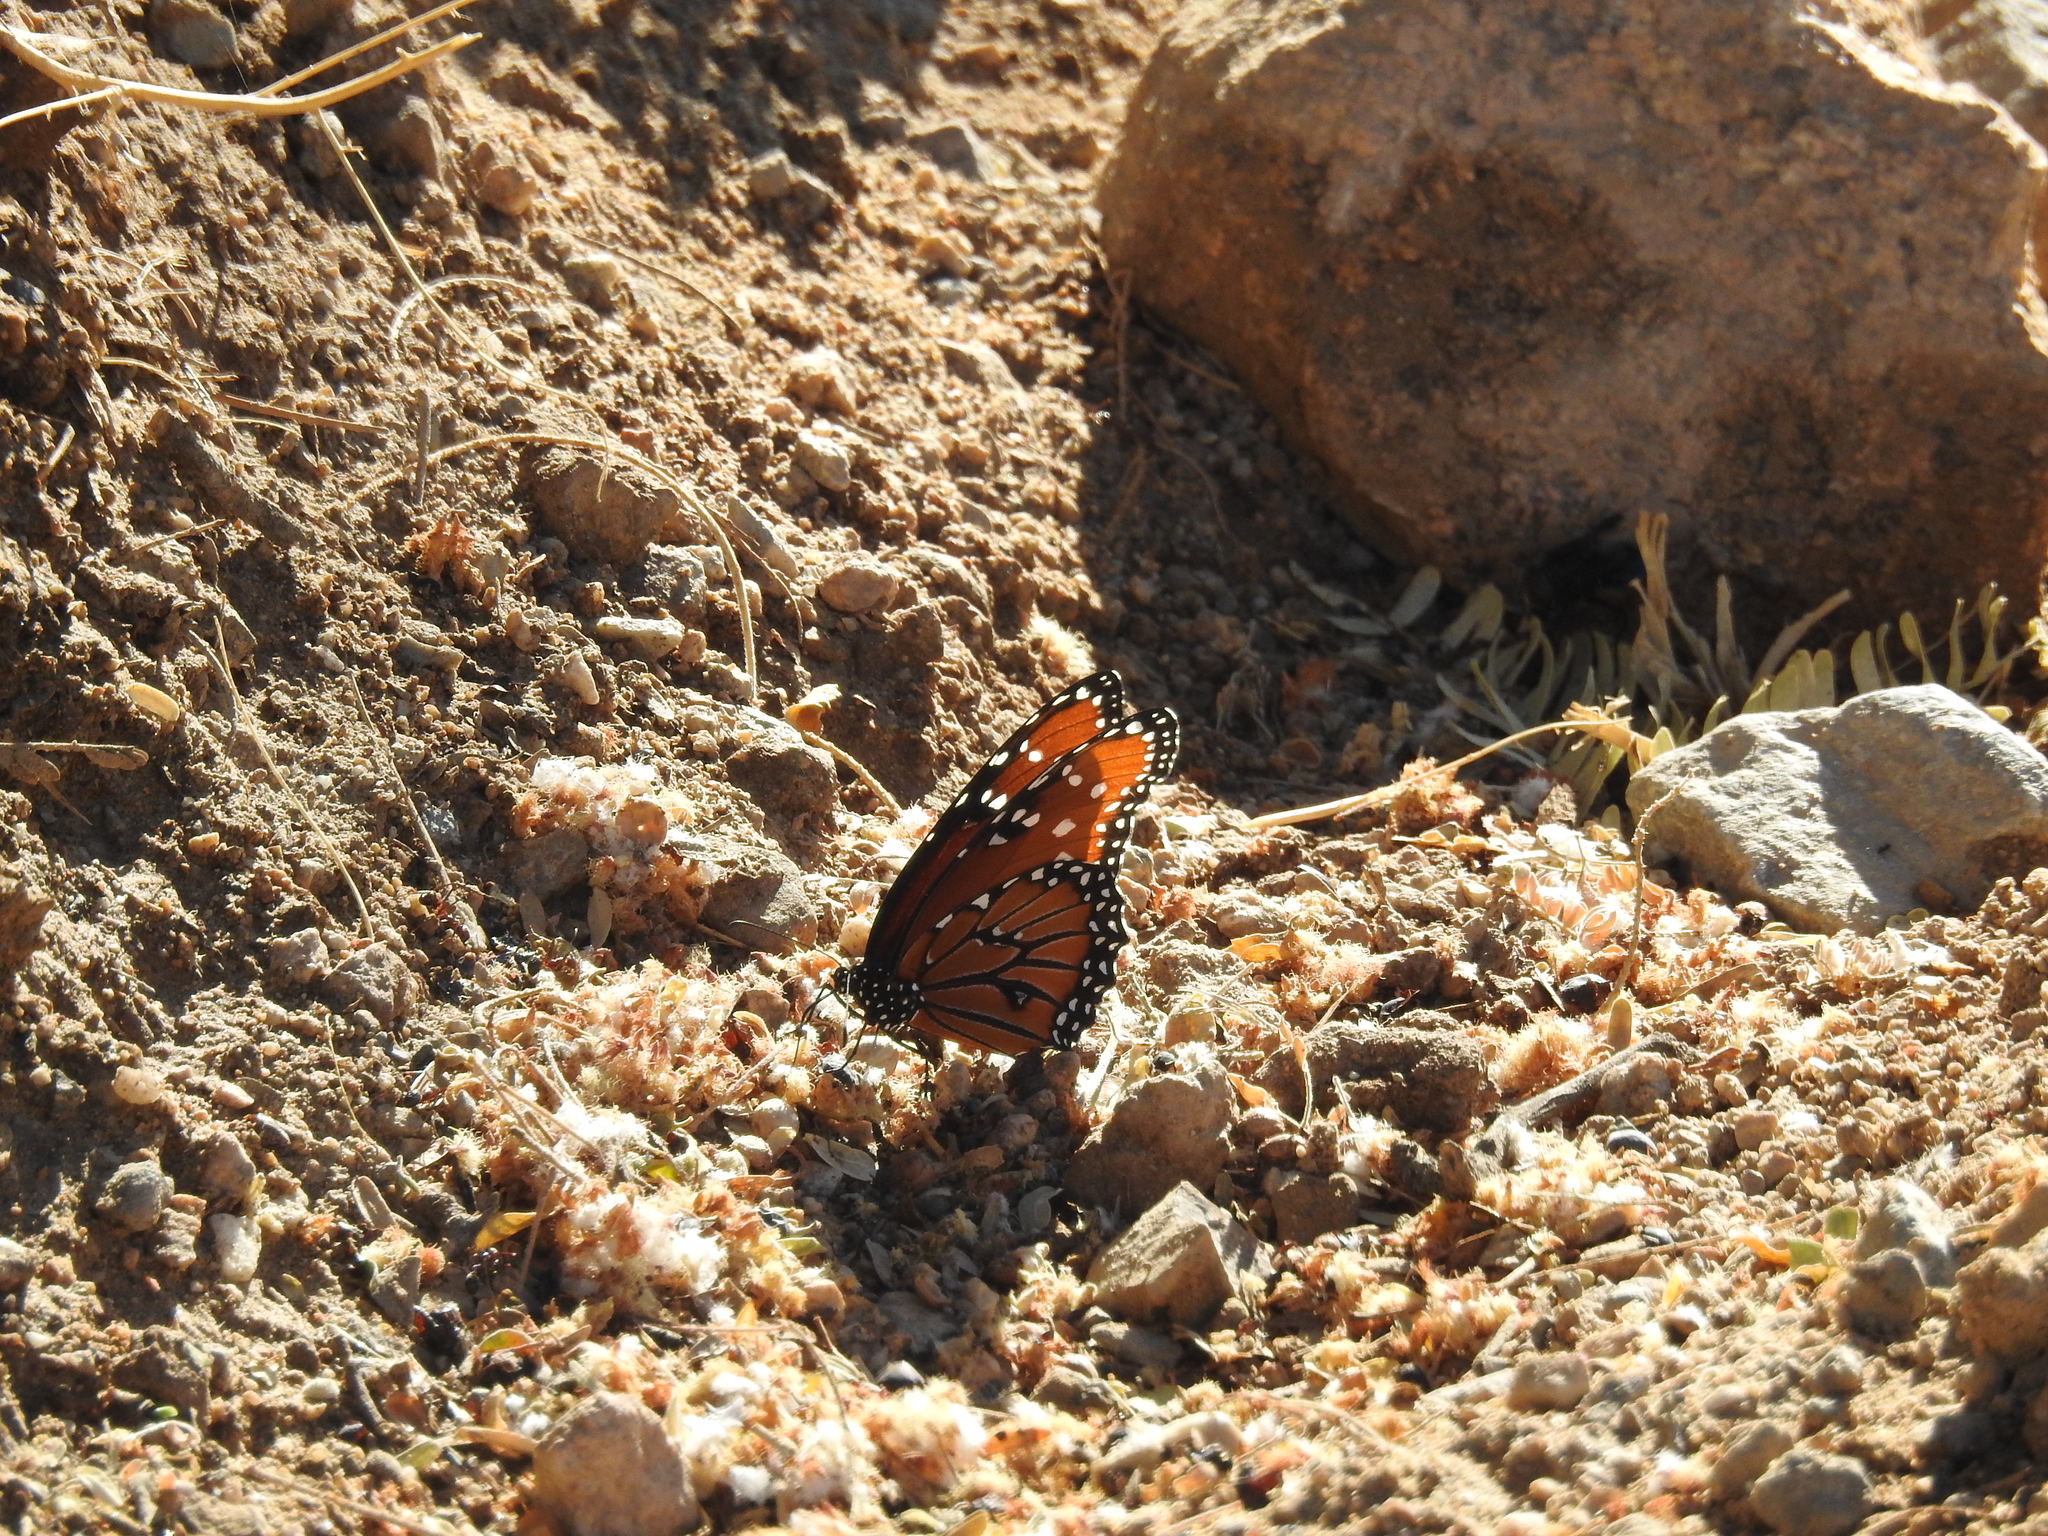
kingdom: Animalia
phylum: Arthropoda
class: Insecta
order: Lepidoptera
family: Nymphalidae
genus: Danaus
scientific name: Danaus gilippus
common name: Queen
